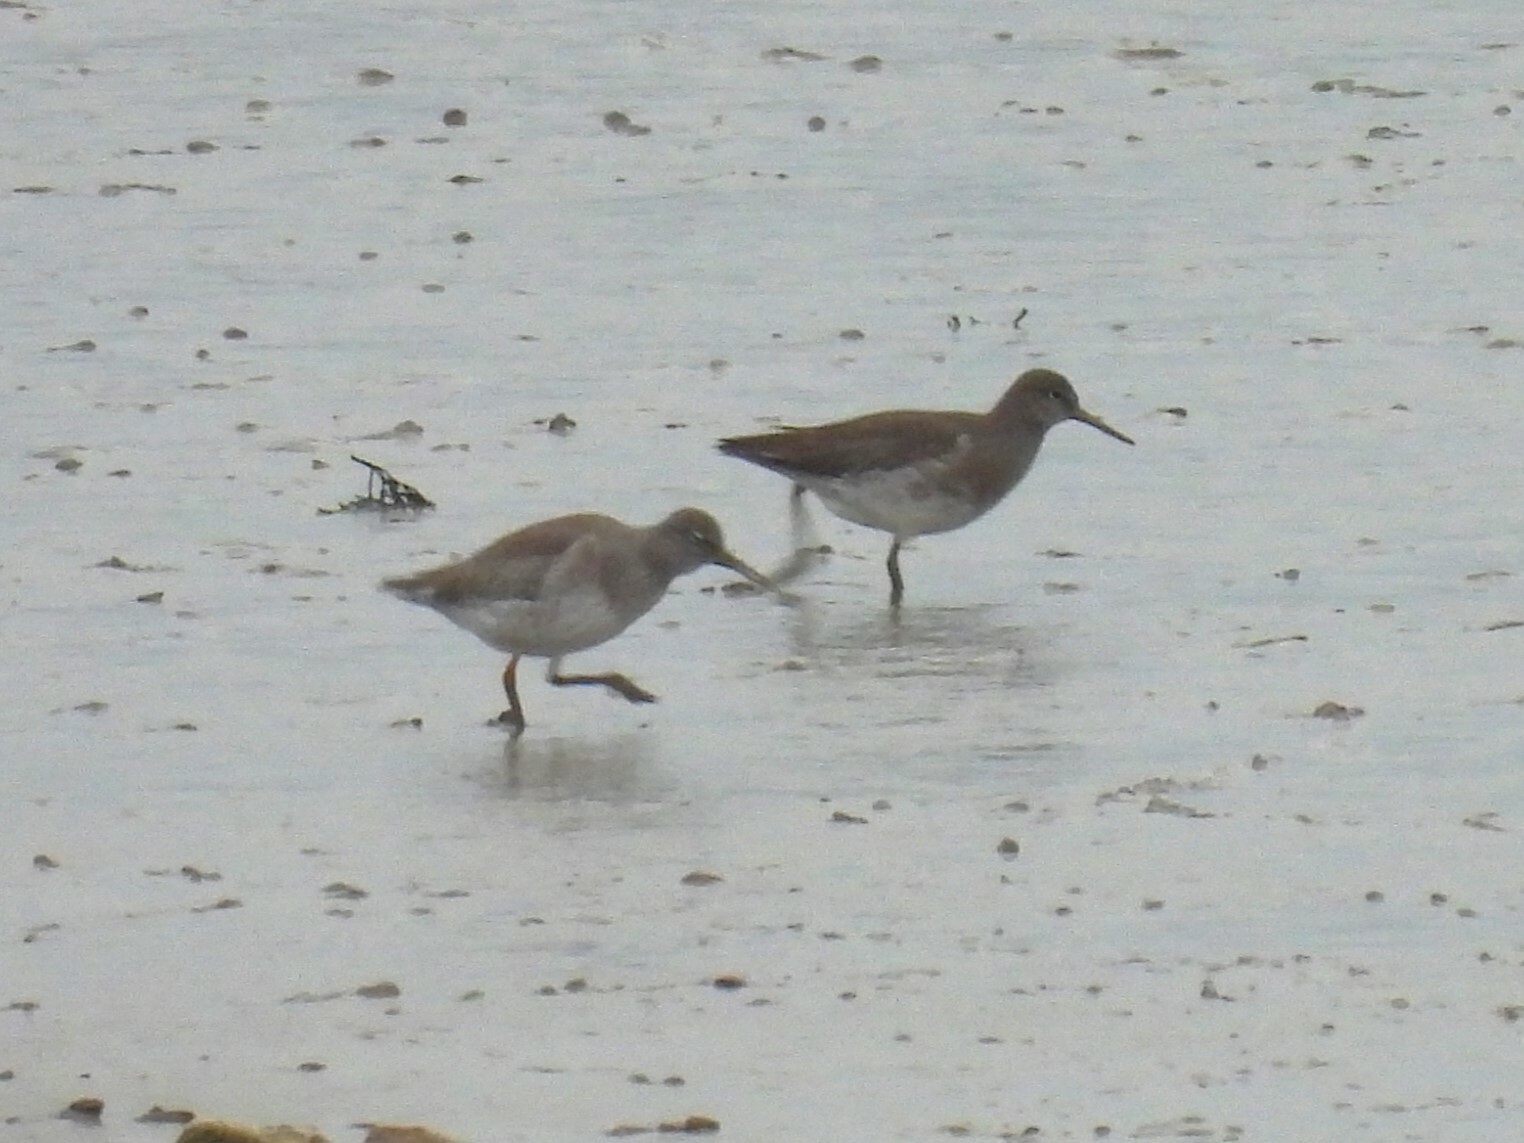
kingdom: Animalia
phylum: Chordata
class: Aves
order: Charadriiformes
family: Scolopacidae
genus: Tringa
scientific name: Tringa totanus
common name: Common redshank
